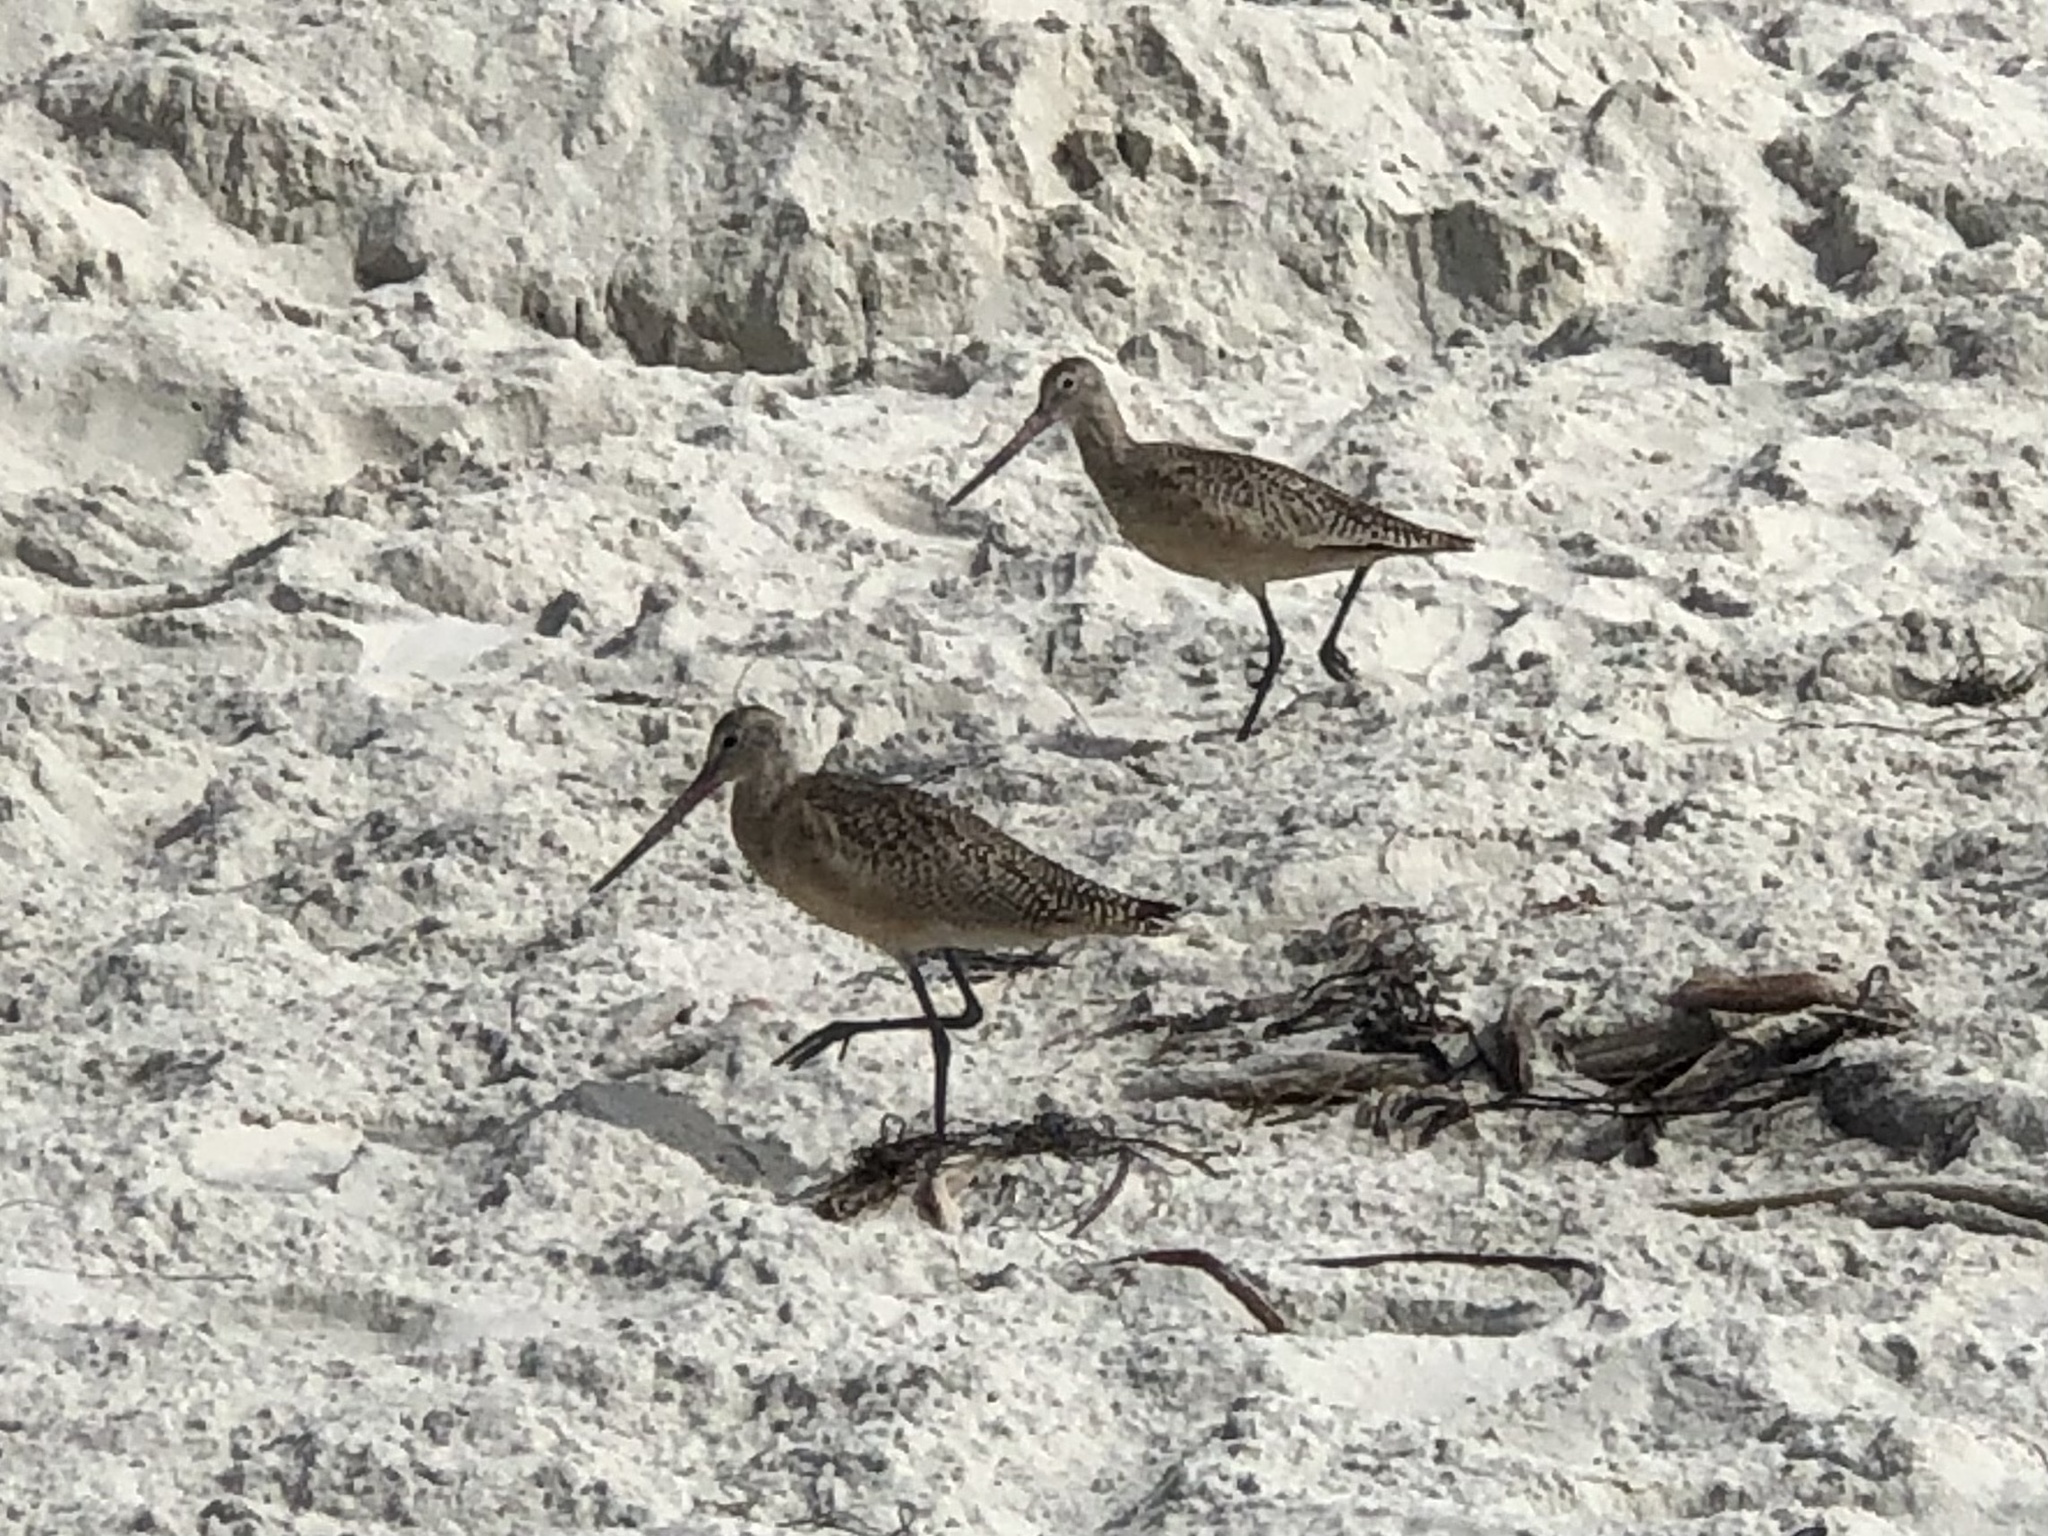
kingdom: Animalia
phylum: Chordata
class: Aves
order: Charadriiformes
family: Scolopacidae
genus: Limosa
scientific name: Limosa fedoa
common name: Marbled godwit
